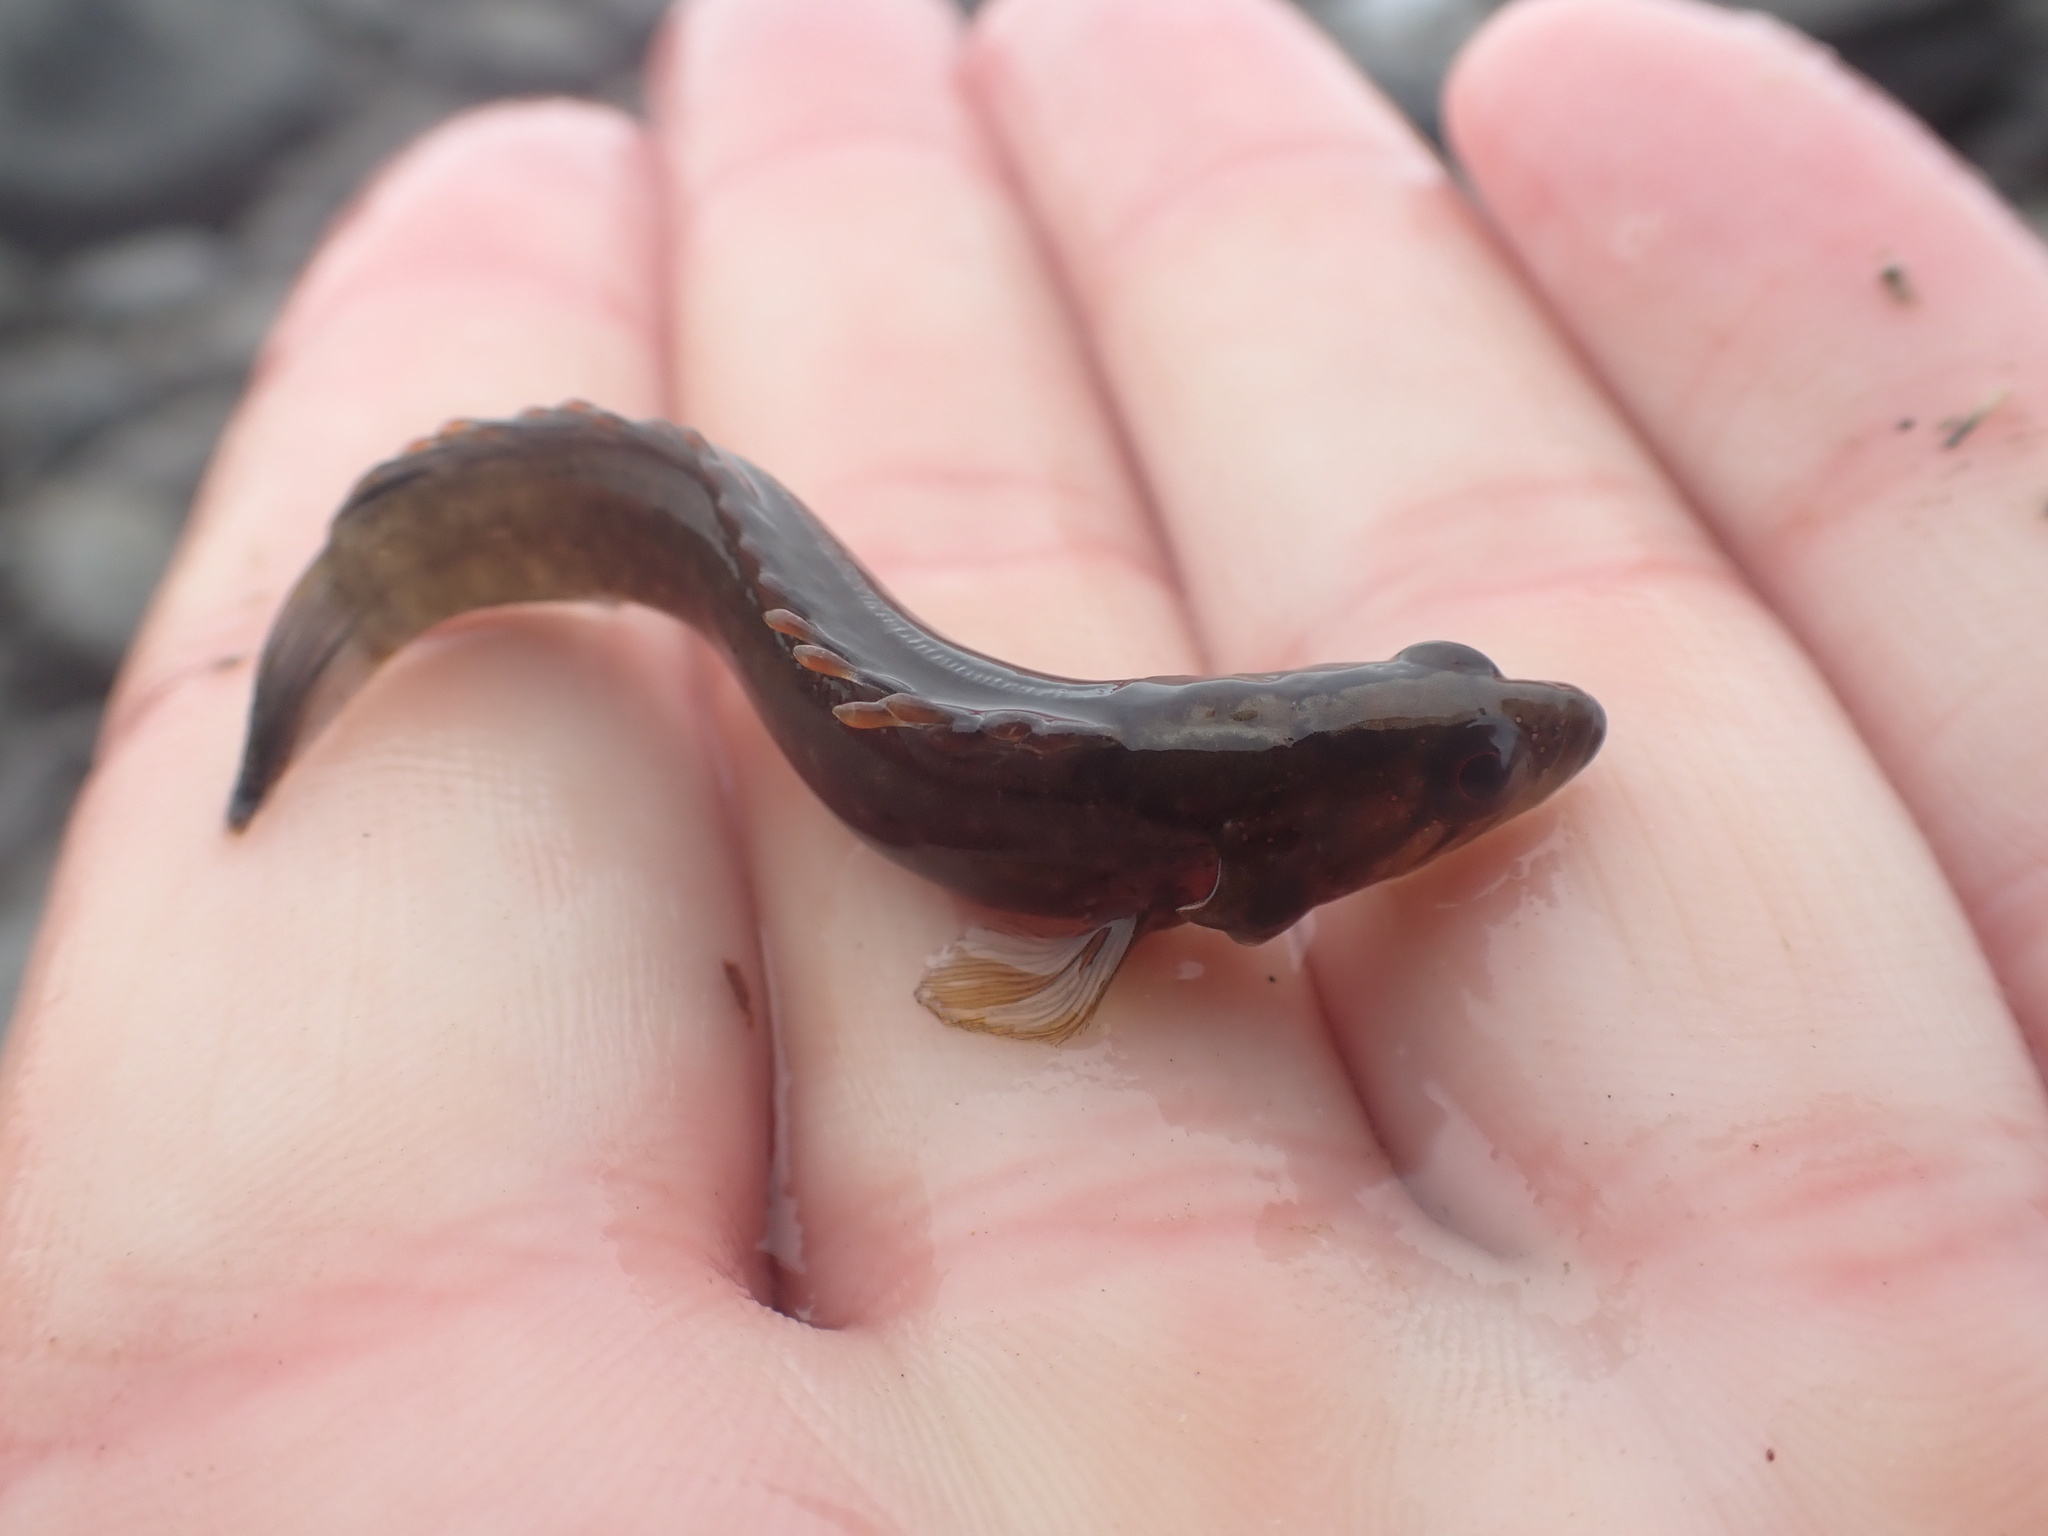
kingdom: Animalia
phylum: Chordata
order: Perciformes
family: Plesiopidae
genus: Acanthoclinus
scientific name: Acanthoclinus fuscus
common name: Olive rockfish
